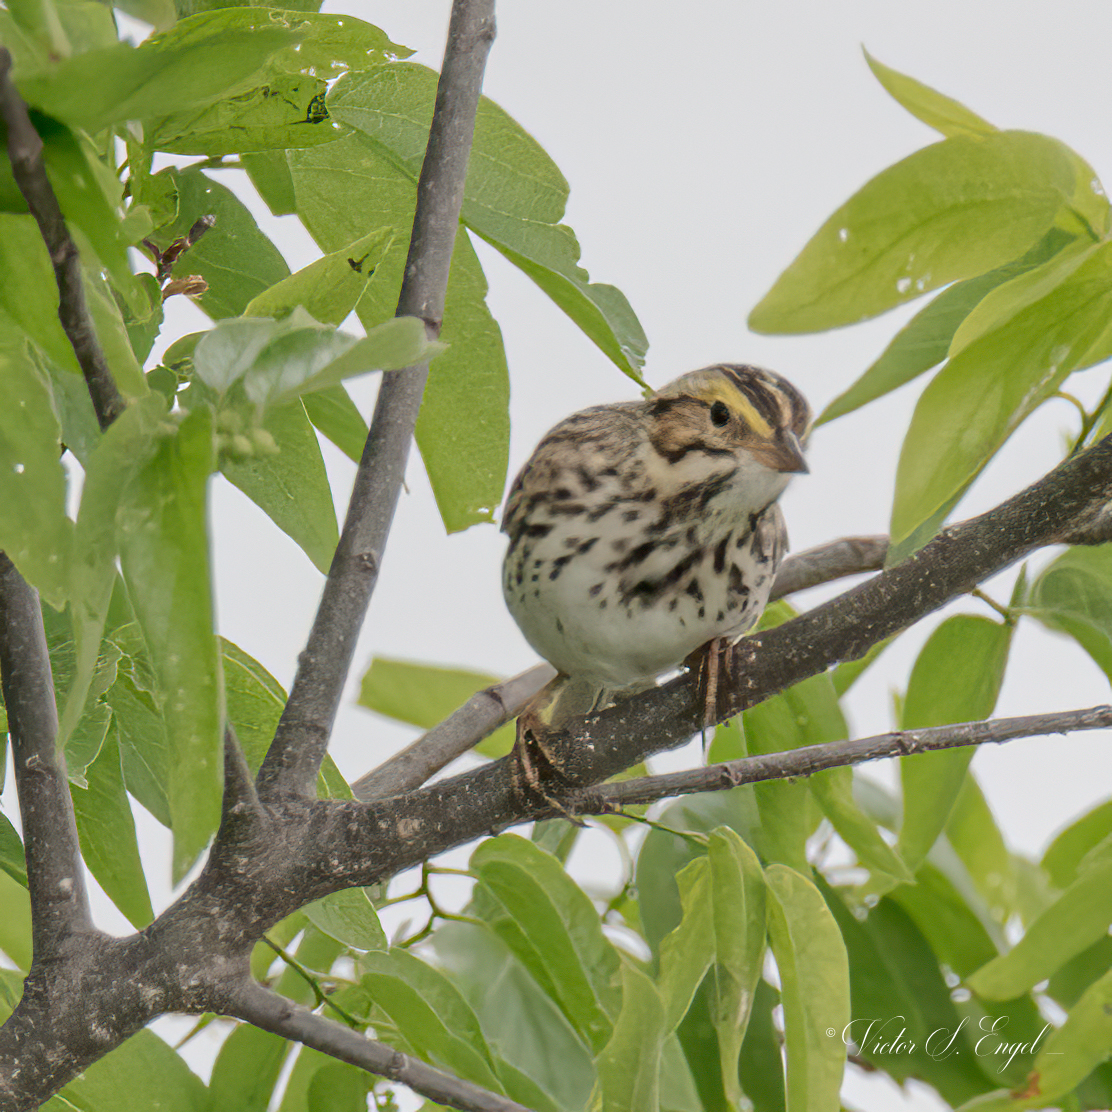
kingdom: Animalia
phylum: Chordata
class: Aves
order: Passeriformes
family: Passerellidae
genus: Passerculus
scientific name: Passerculus sandwichensis
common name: Savannah sparrow
